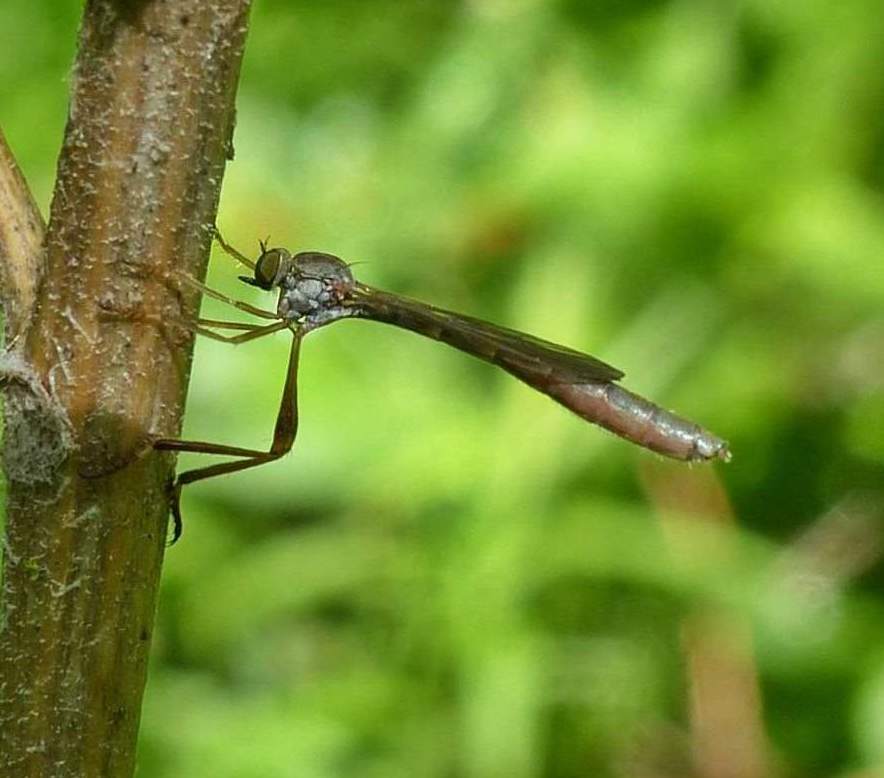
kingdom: Animalia
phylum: Arthropoda
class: Insecta
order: Diptera
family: Asilidae
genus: Leptogaster
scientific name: Leptogaster flavipes
